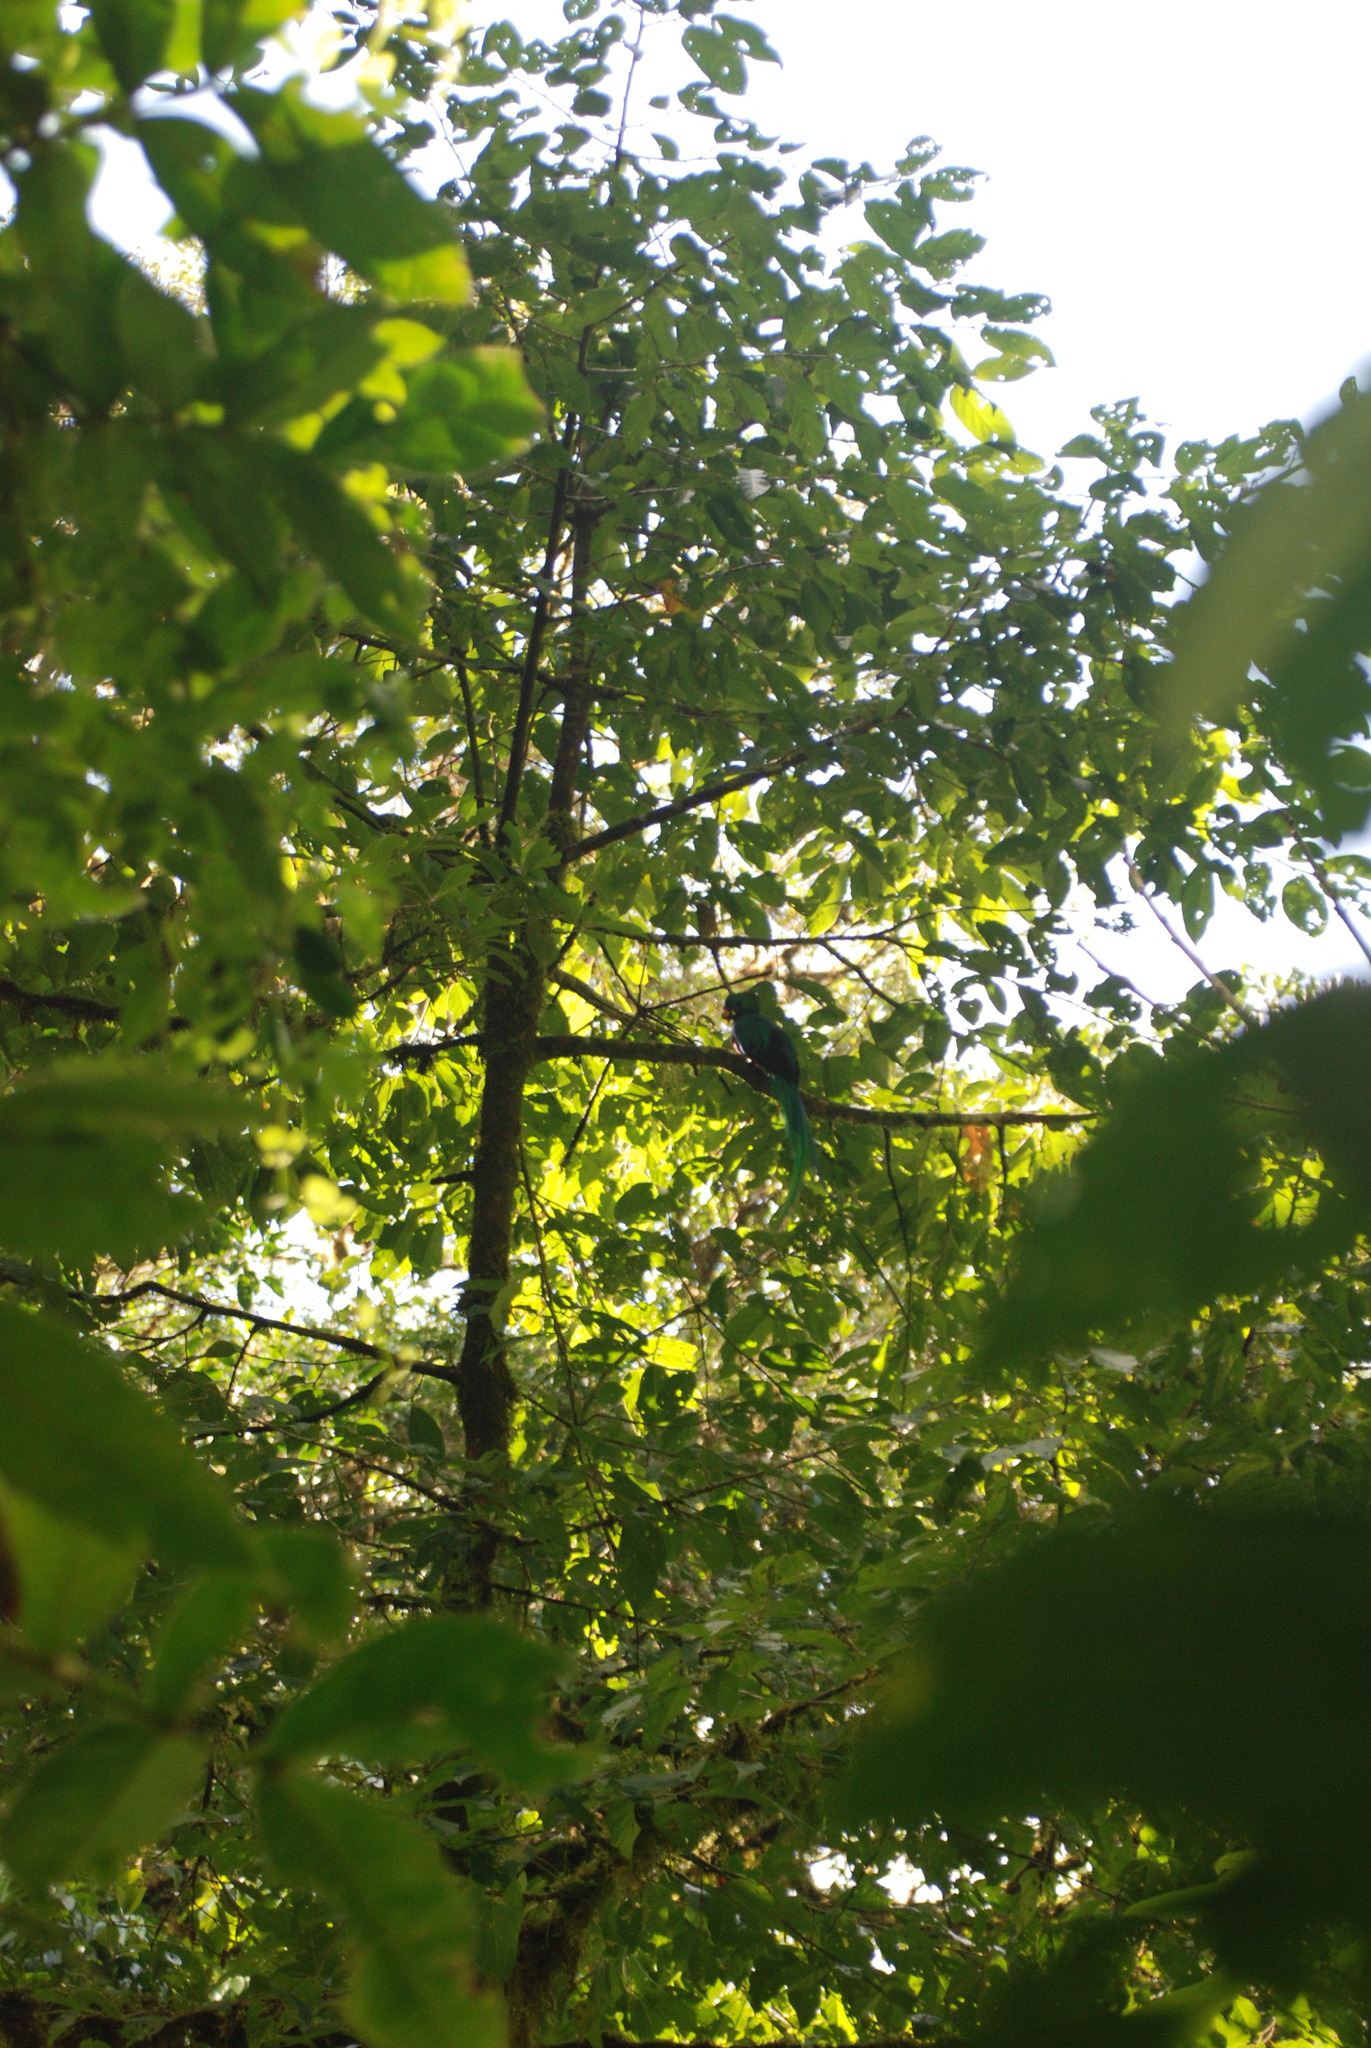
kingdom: Animalia
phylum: Chordata
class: Aves
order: Trogoniformes
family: Trogonidae
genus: Pharomachrus
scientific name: Pharomachrus mocinno
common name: Resplendent quetzal
